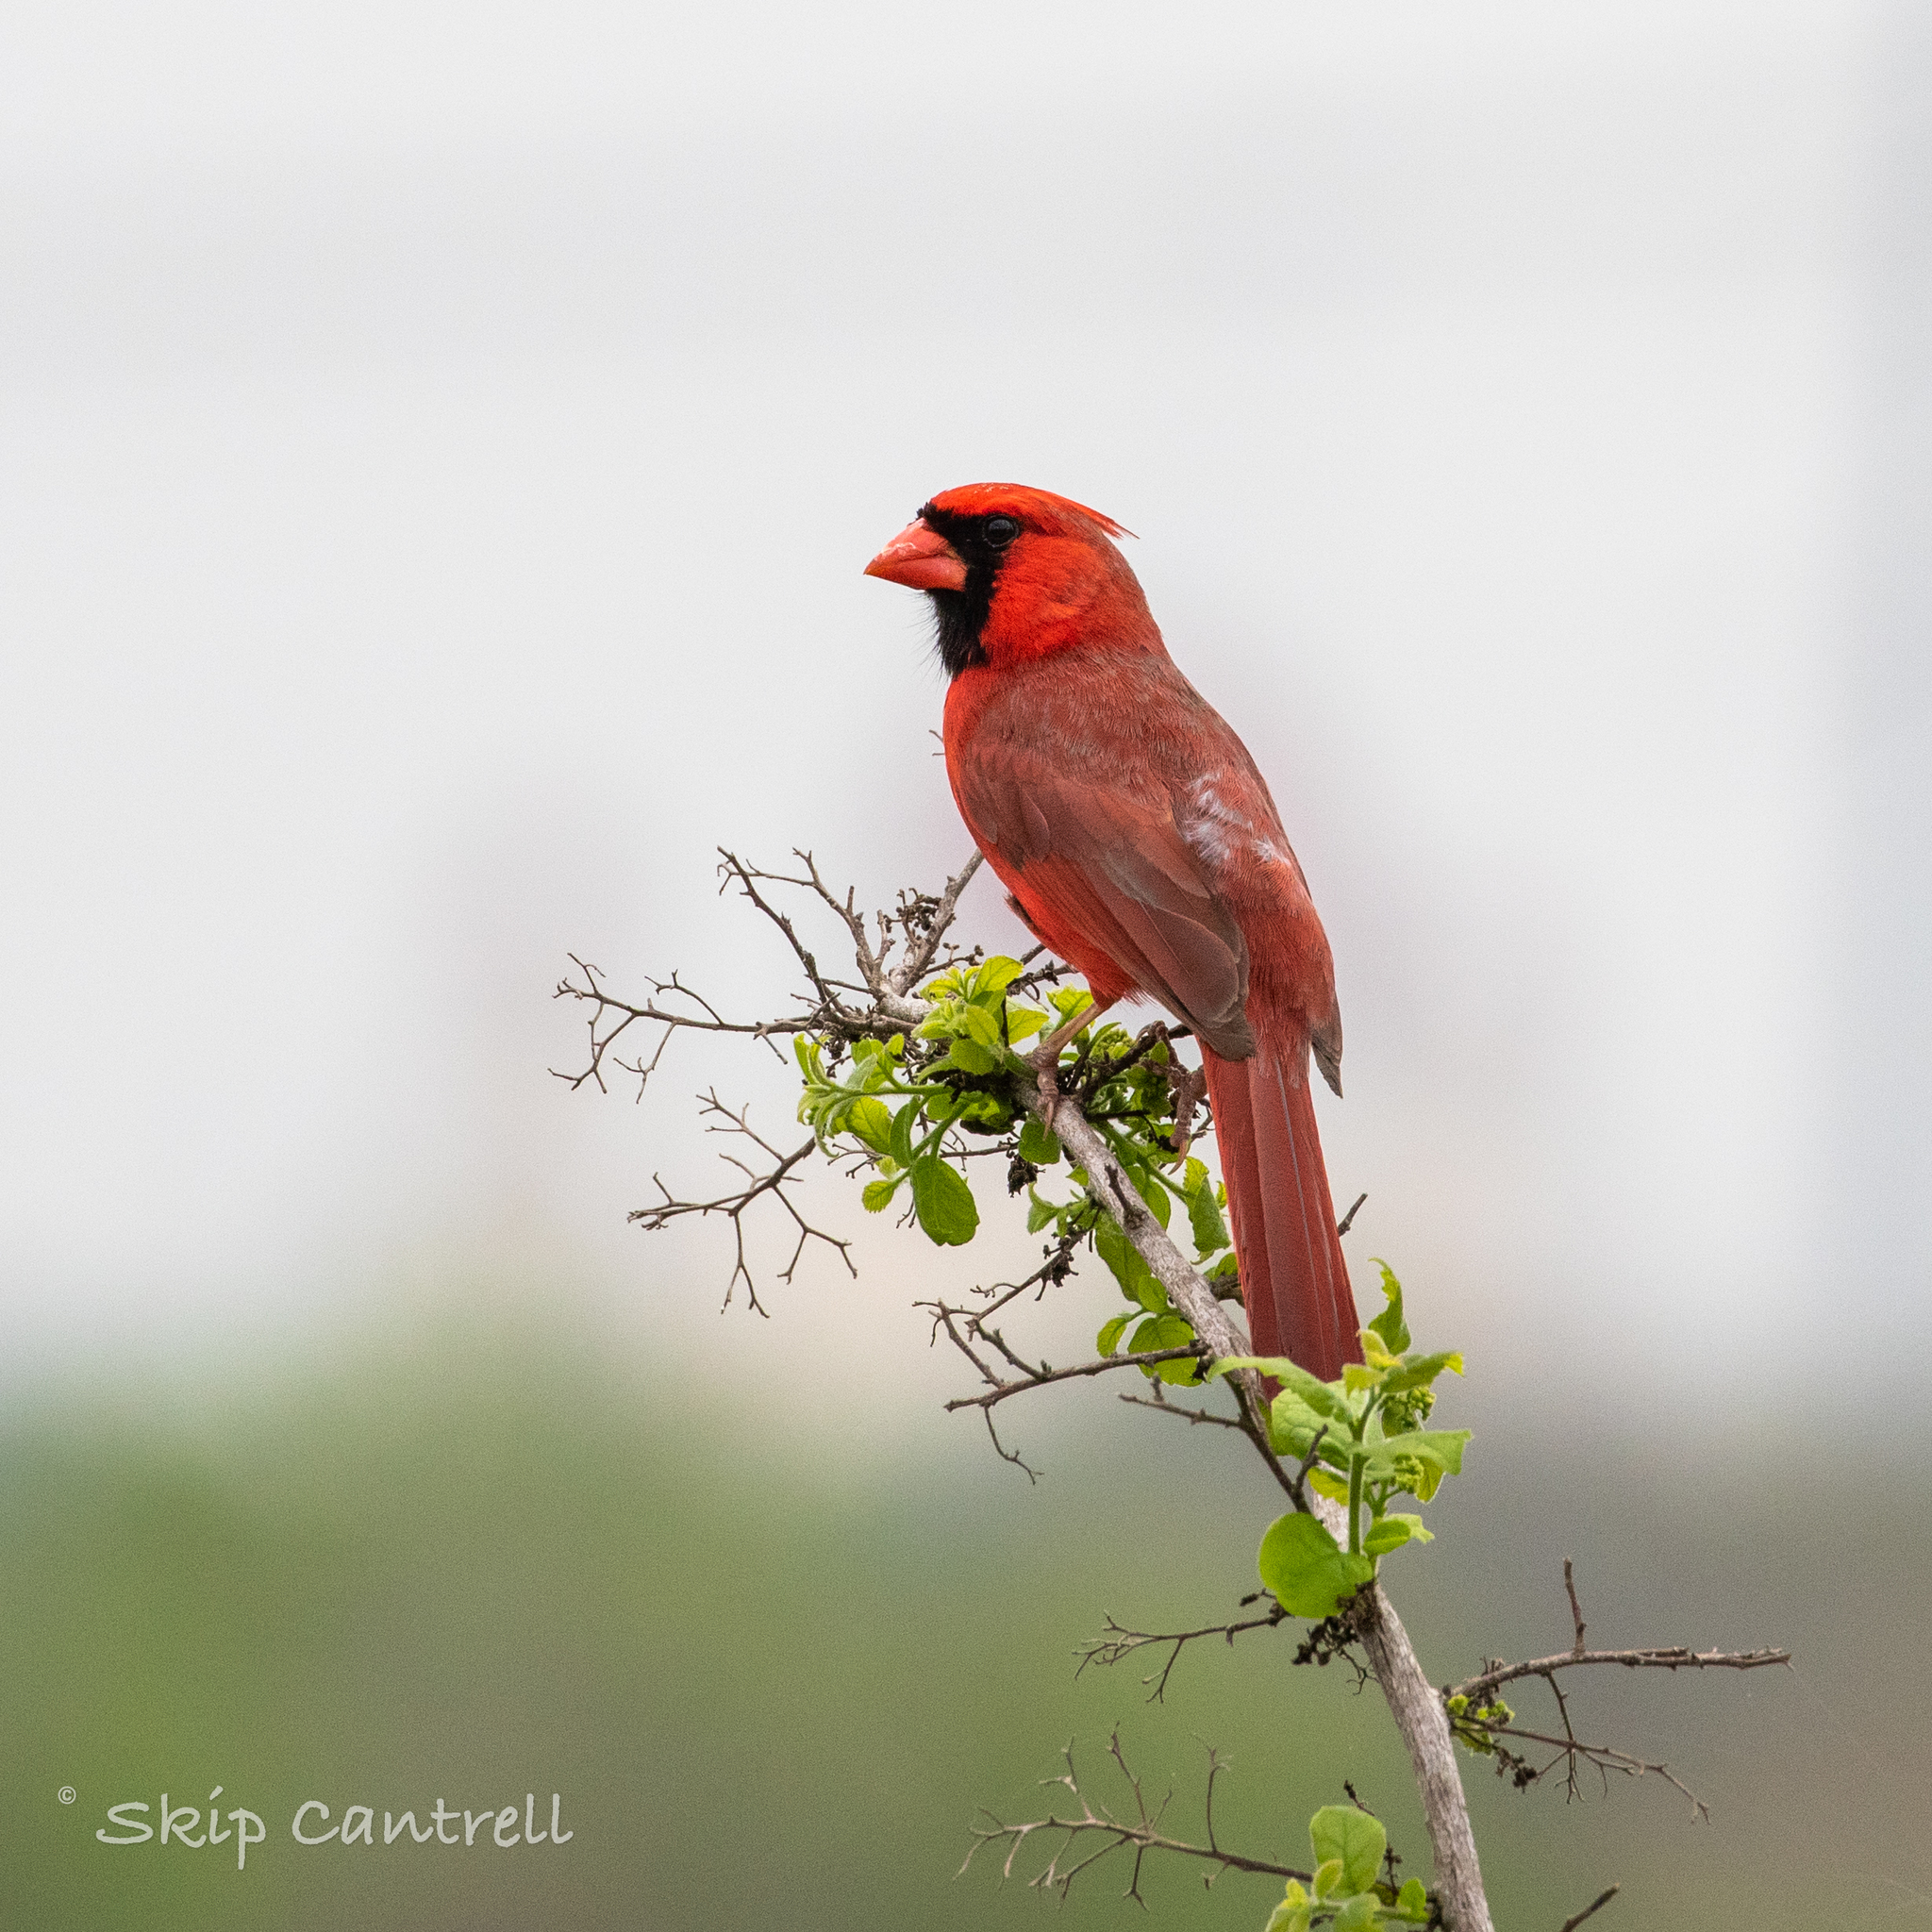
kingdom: Animalia
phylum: Chordata
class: Aves
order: Passeriformes
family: Cardinalidae
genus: Cardinalis
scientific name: Cardinalis cardinalis
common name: Northern cardinal
